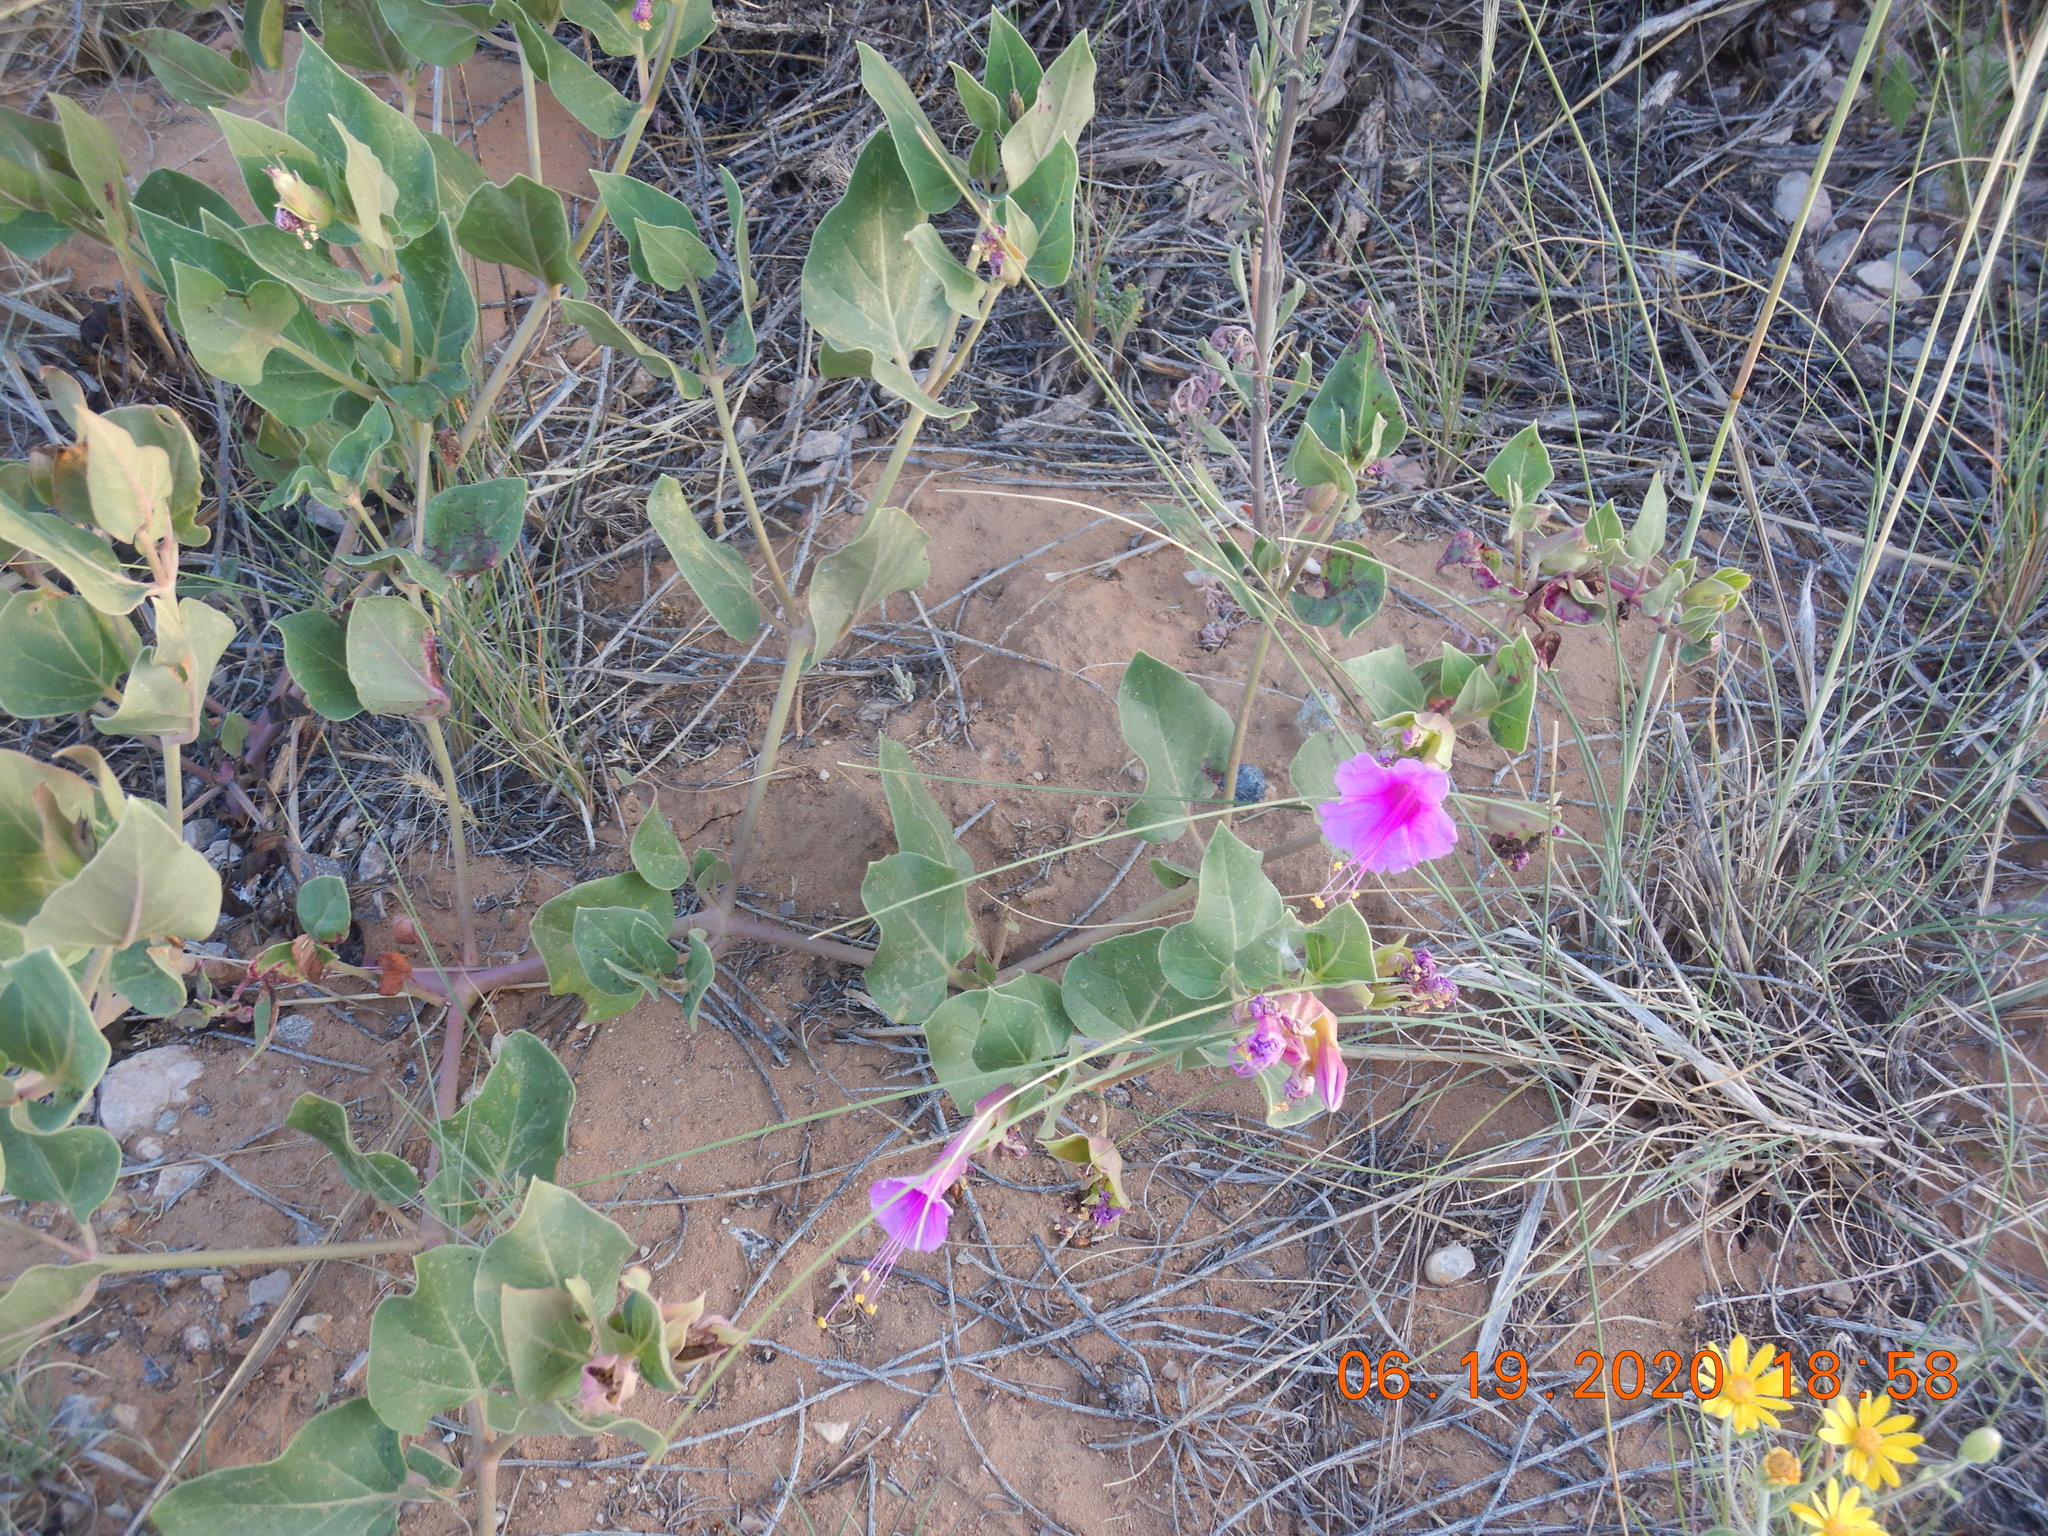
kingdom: Plantae
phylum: Tracheophyta
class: Magnoliopsida
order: Caryophyllales
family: Nyctaginaceae
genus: Mirabilis
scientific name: Mirabilis multiflora
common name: Froebel's four-o'clock
